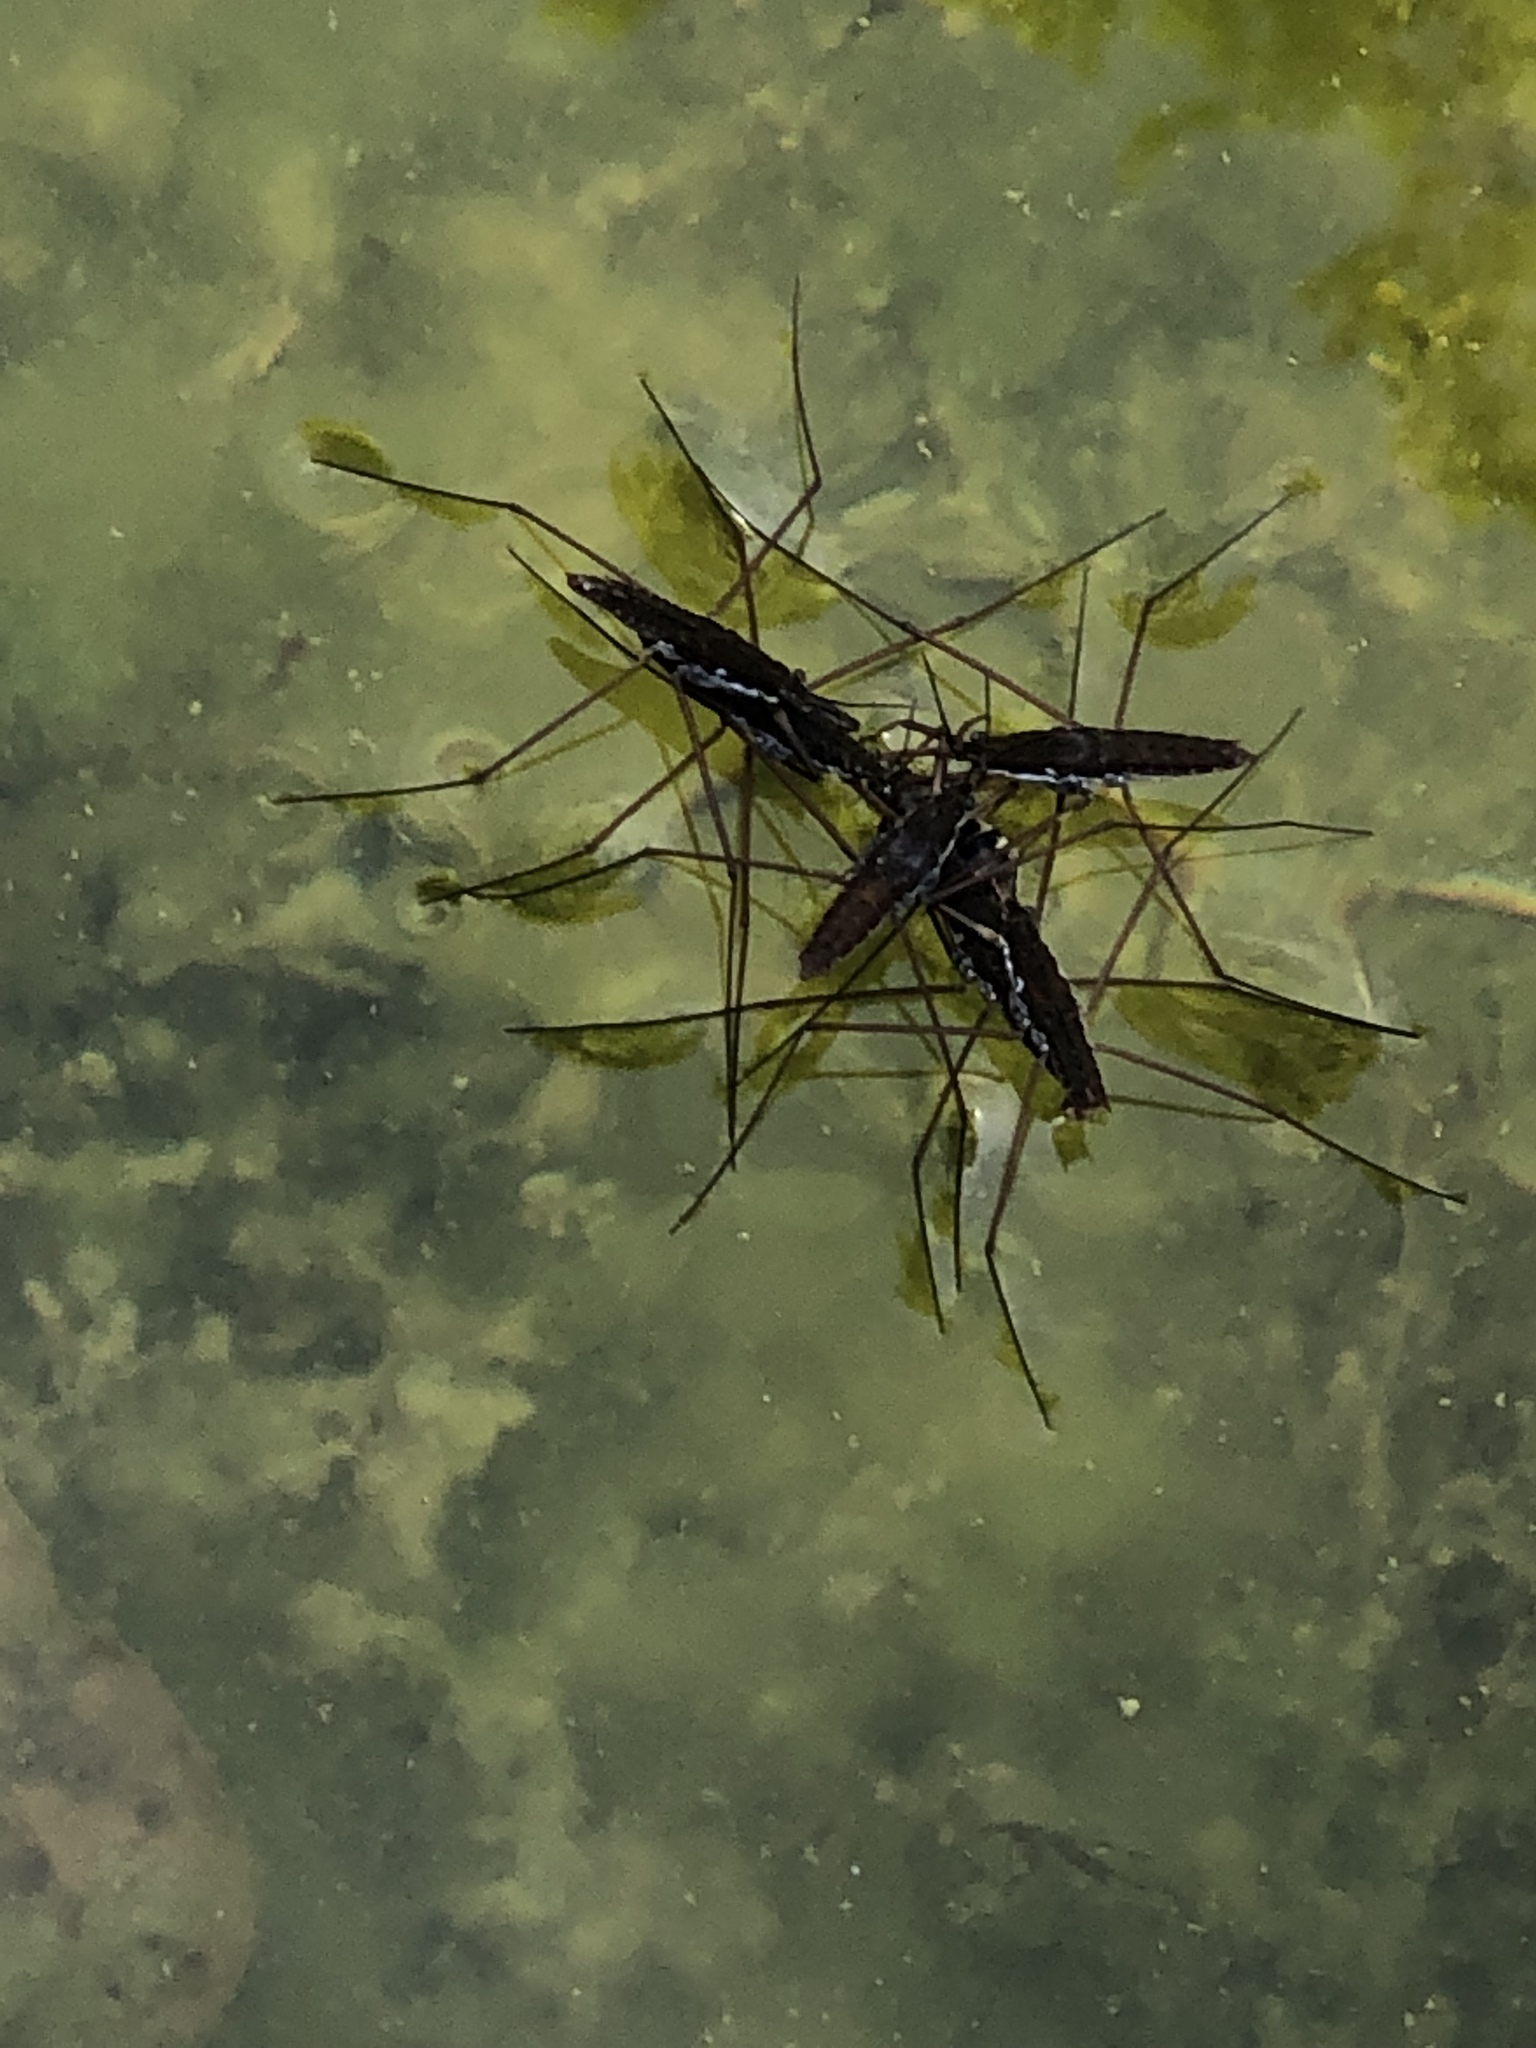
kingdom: Animalia
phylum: Arthropoda
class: Insecta
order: Hemiptera
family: Gerridae
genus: Aquarius
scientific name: Aquarius remigis
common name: Common water strider
